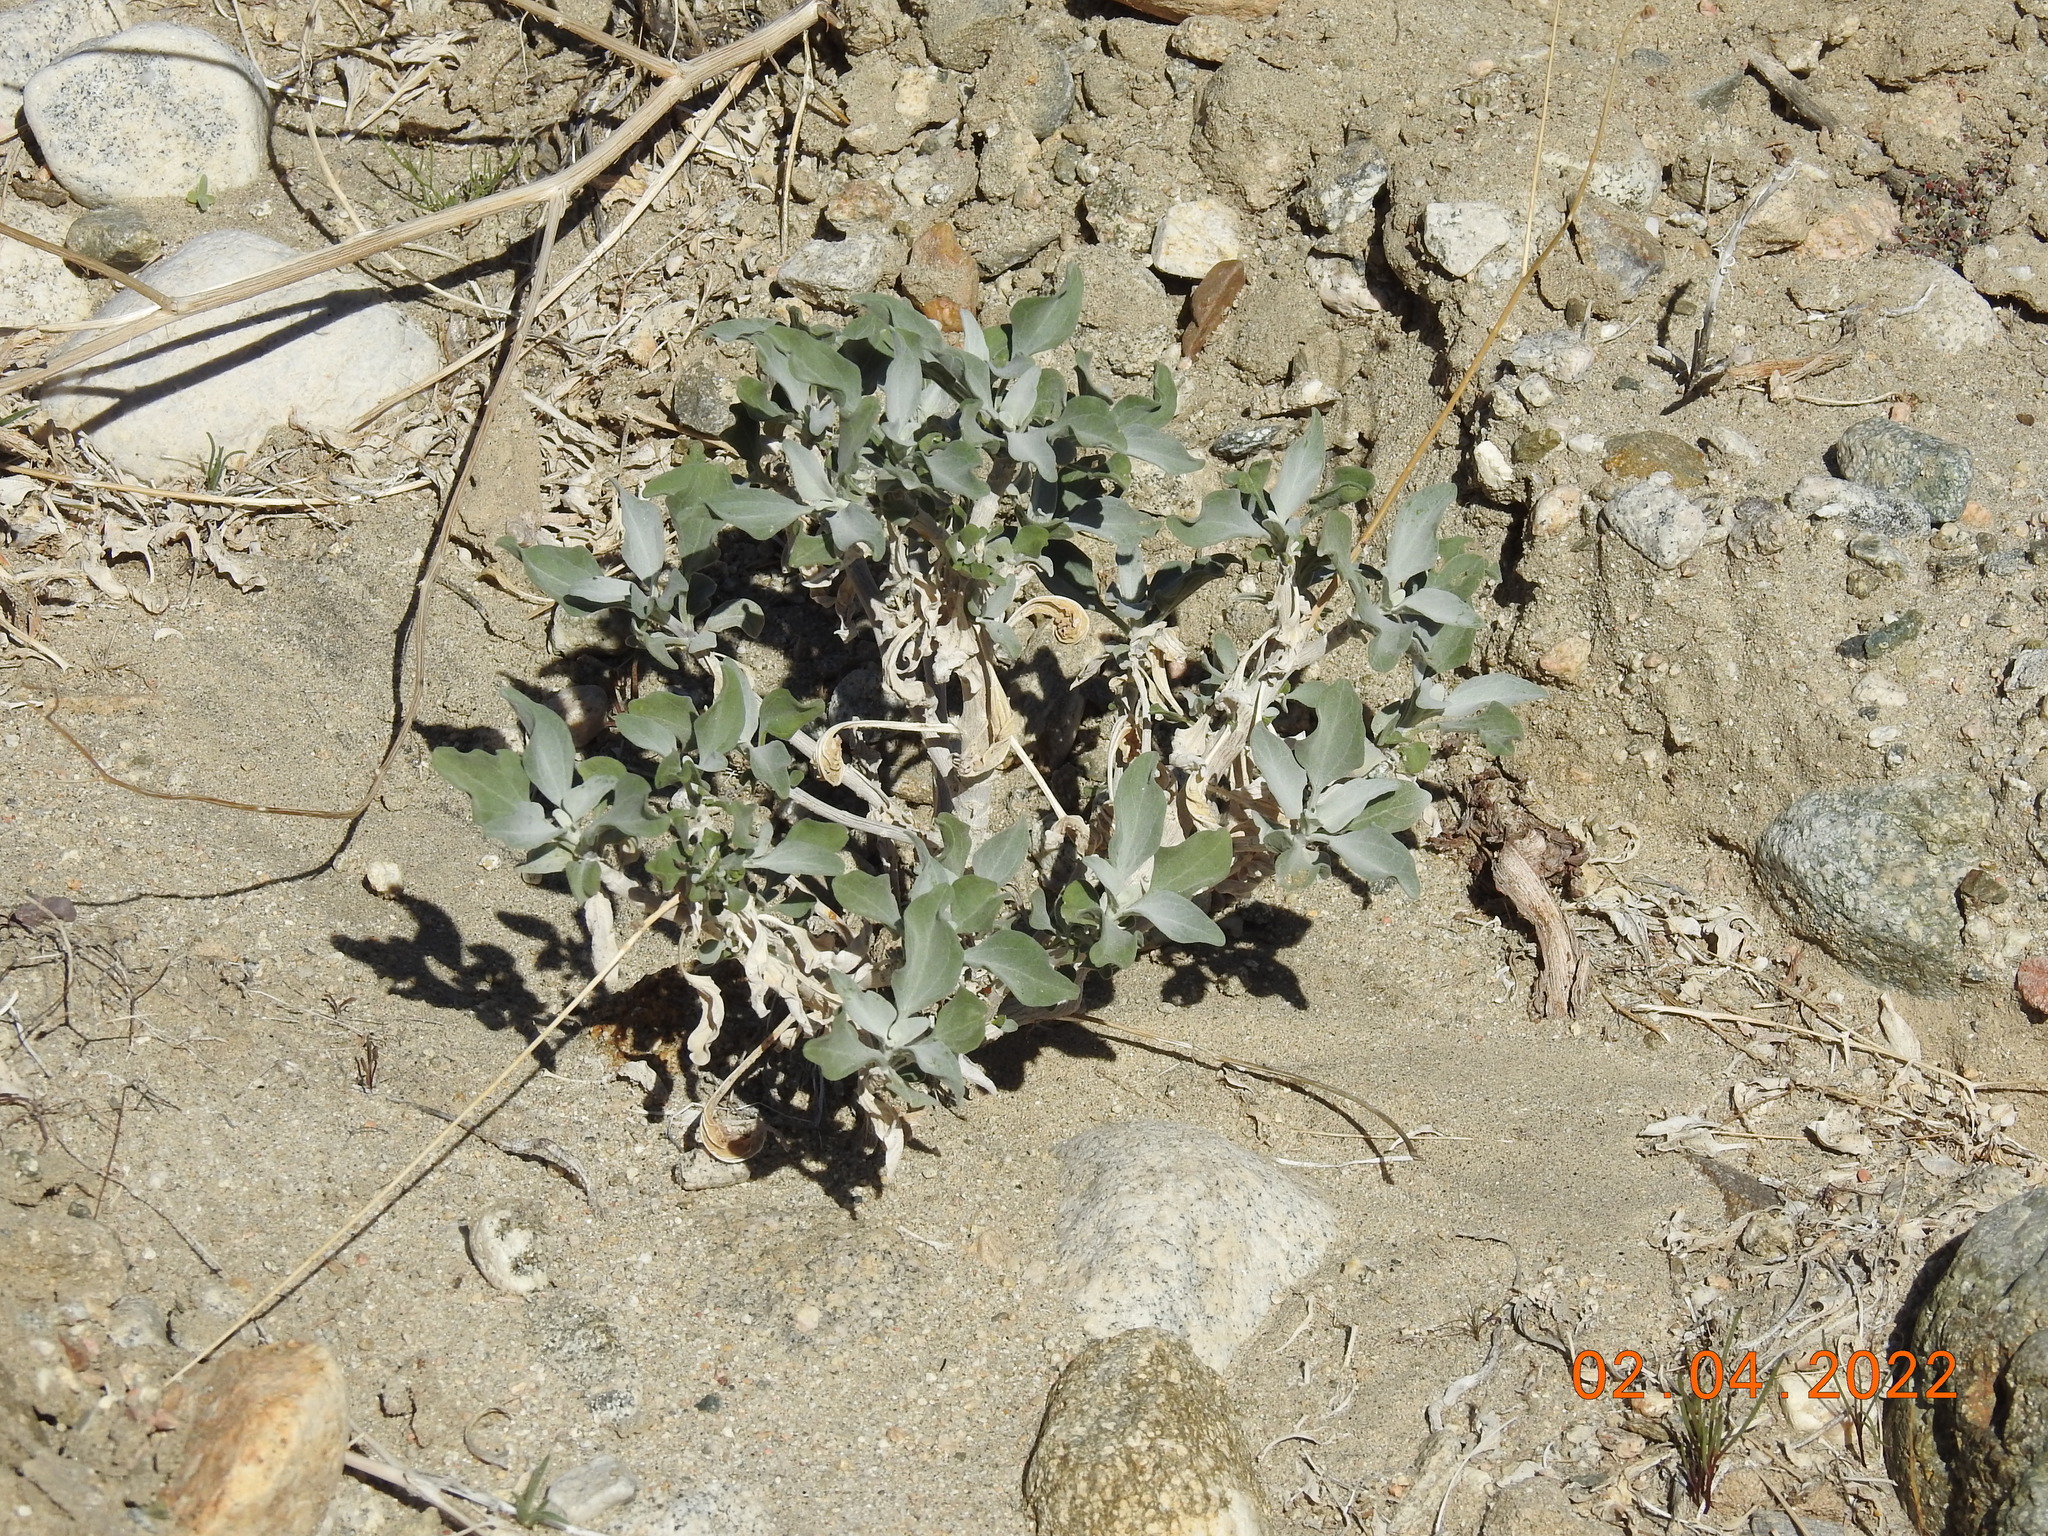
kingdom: Plantae
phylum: Tracheophyta
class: Magnoliopsida
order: Asterales
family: Asteraceae
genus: Encelia
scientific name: Encelia farinosa
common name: Brittlebush
